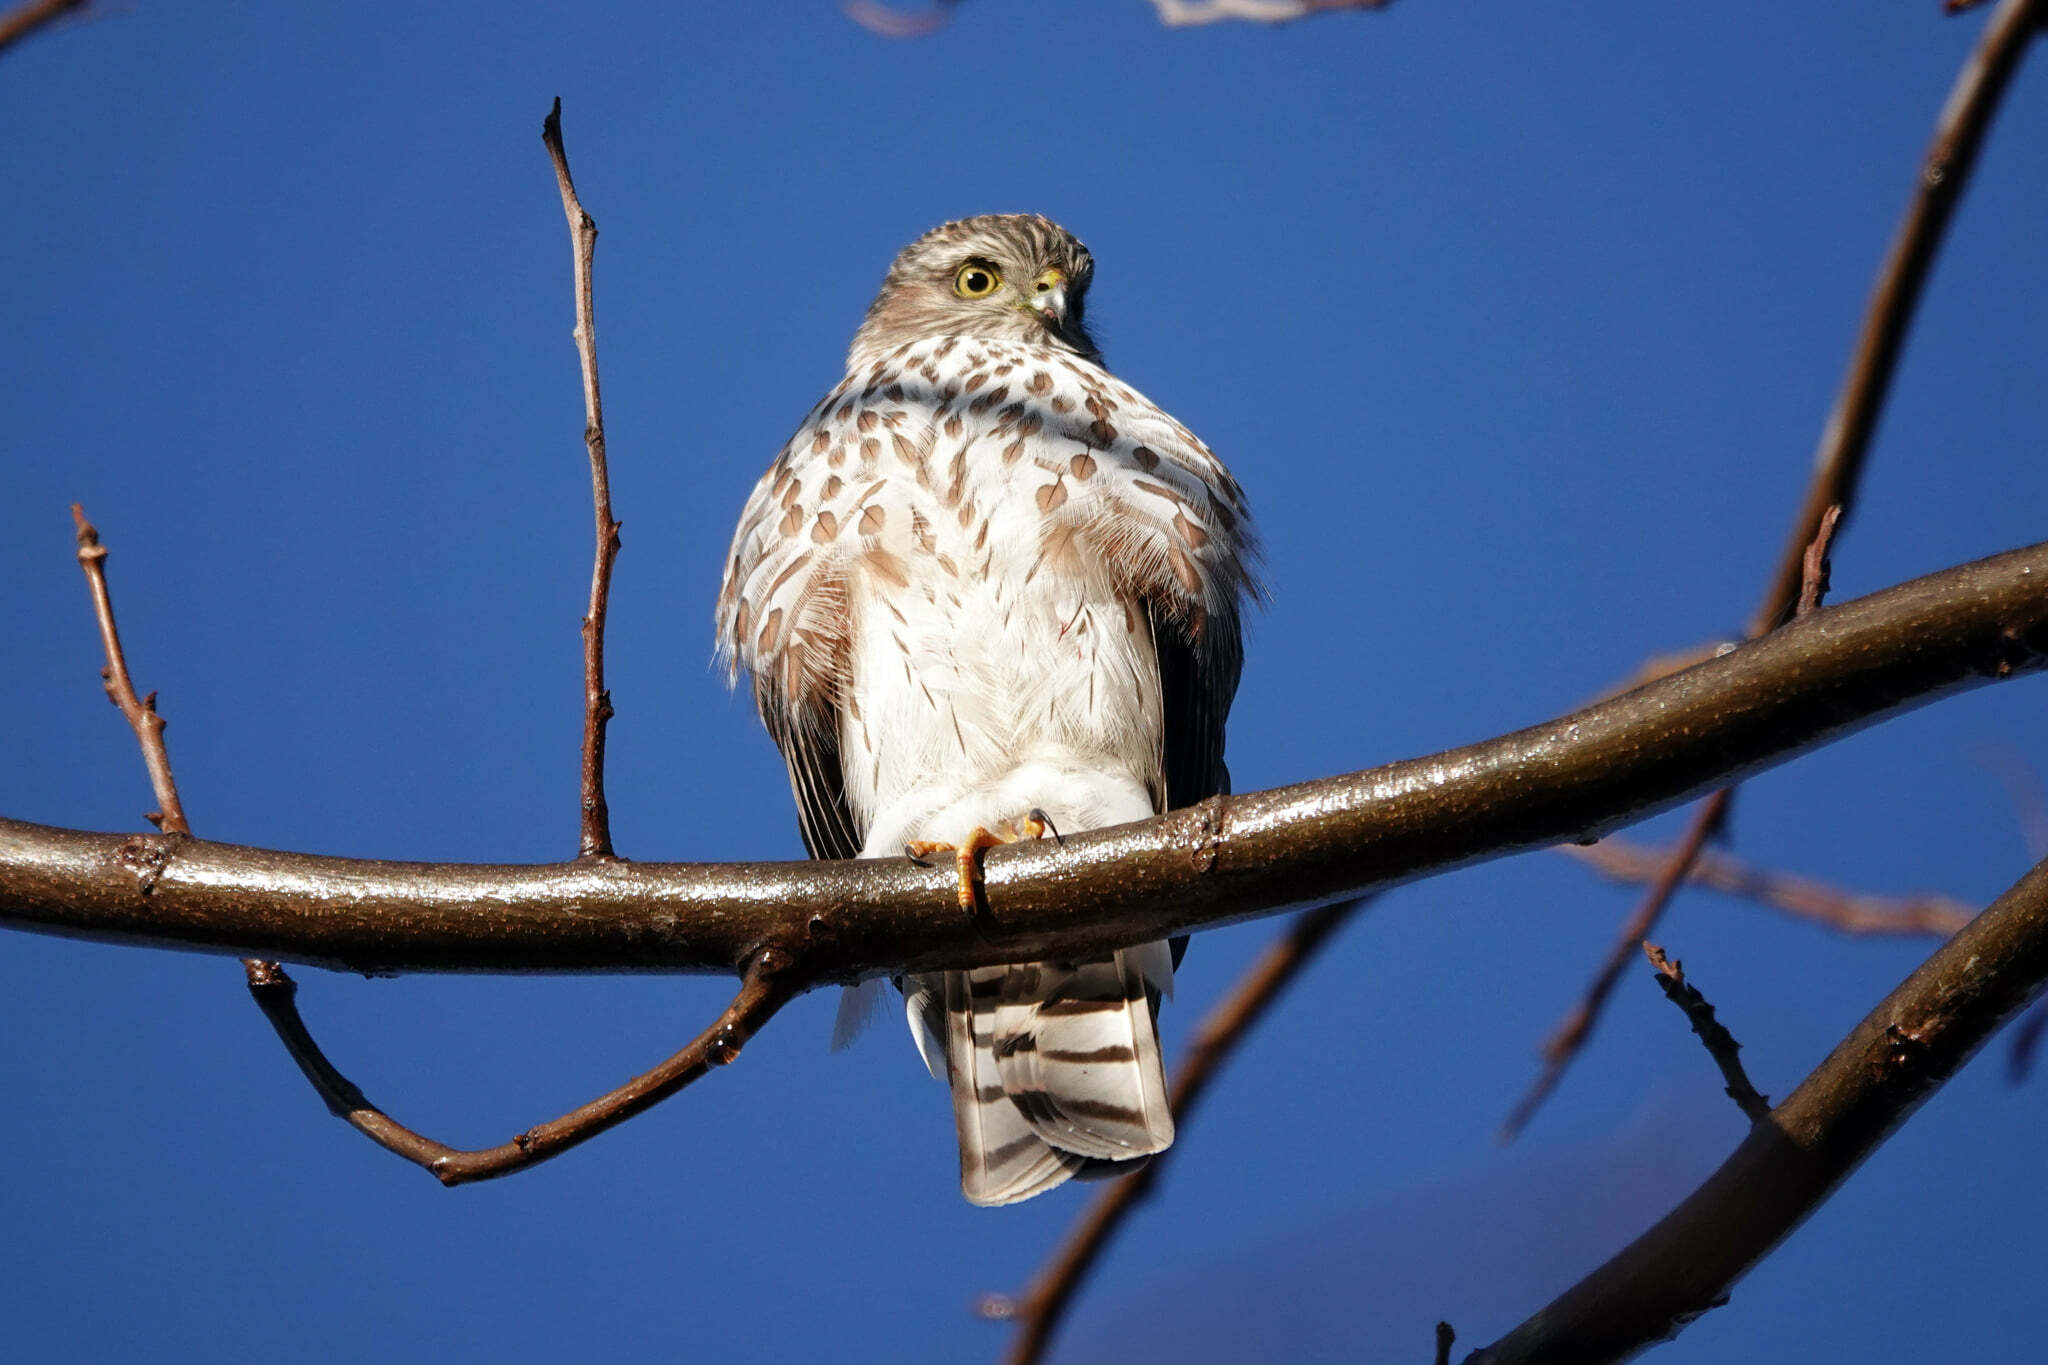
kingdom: Animalia
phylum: Chordata
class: Aves
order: Accipitriformes
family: Accipitridae
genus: Accipiter
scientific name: Accipiter striatus
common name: Sharp-shinned hawk
